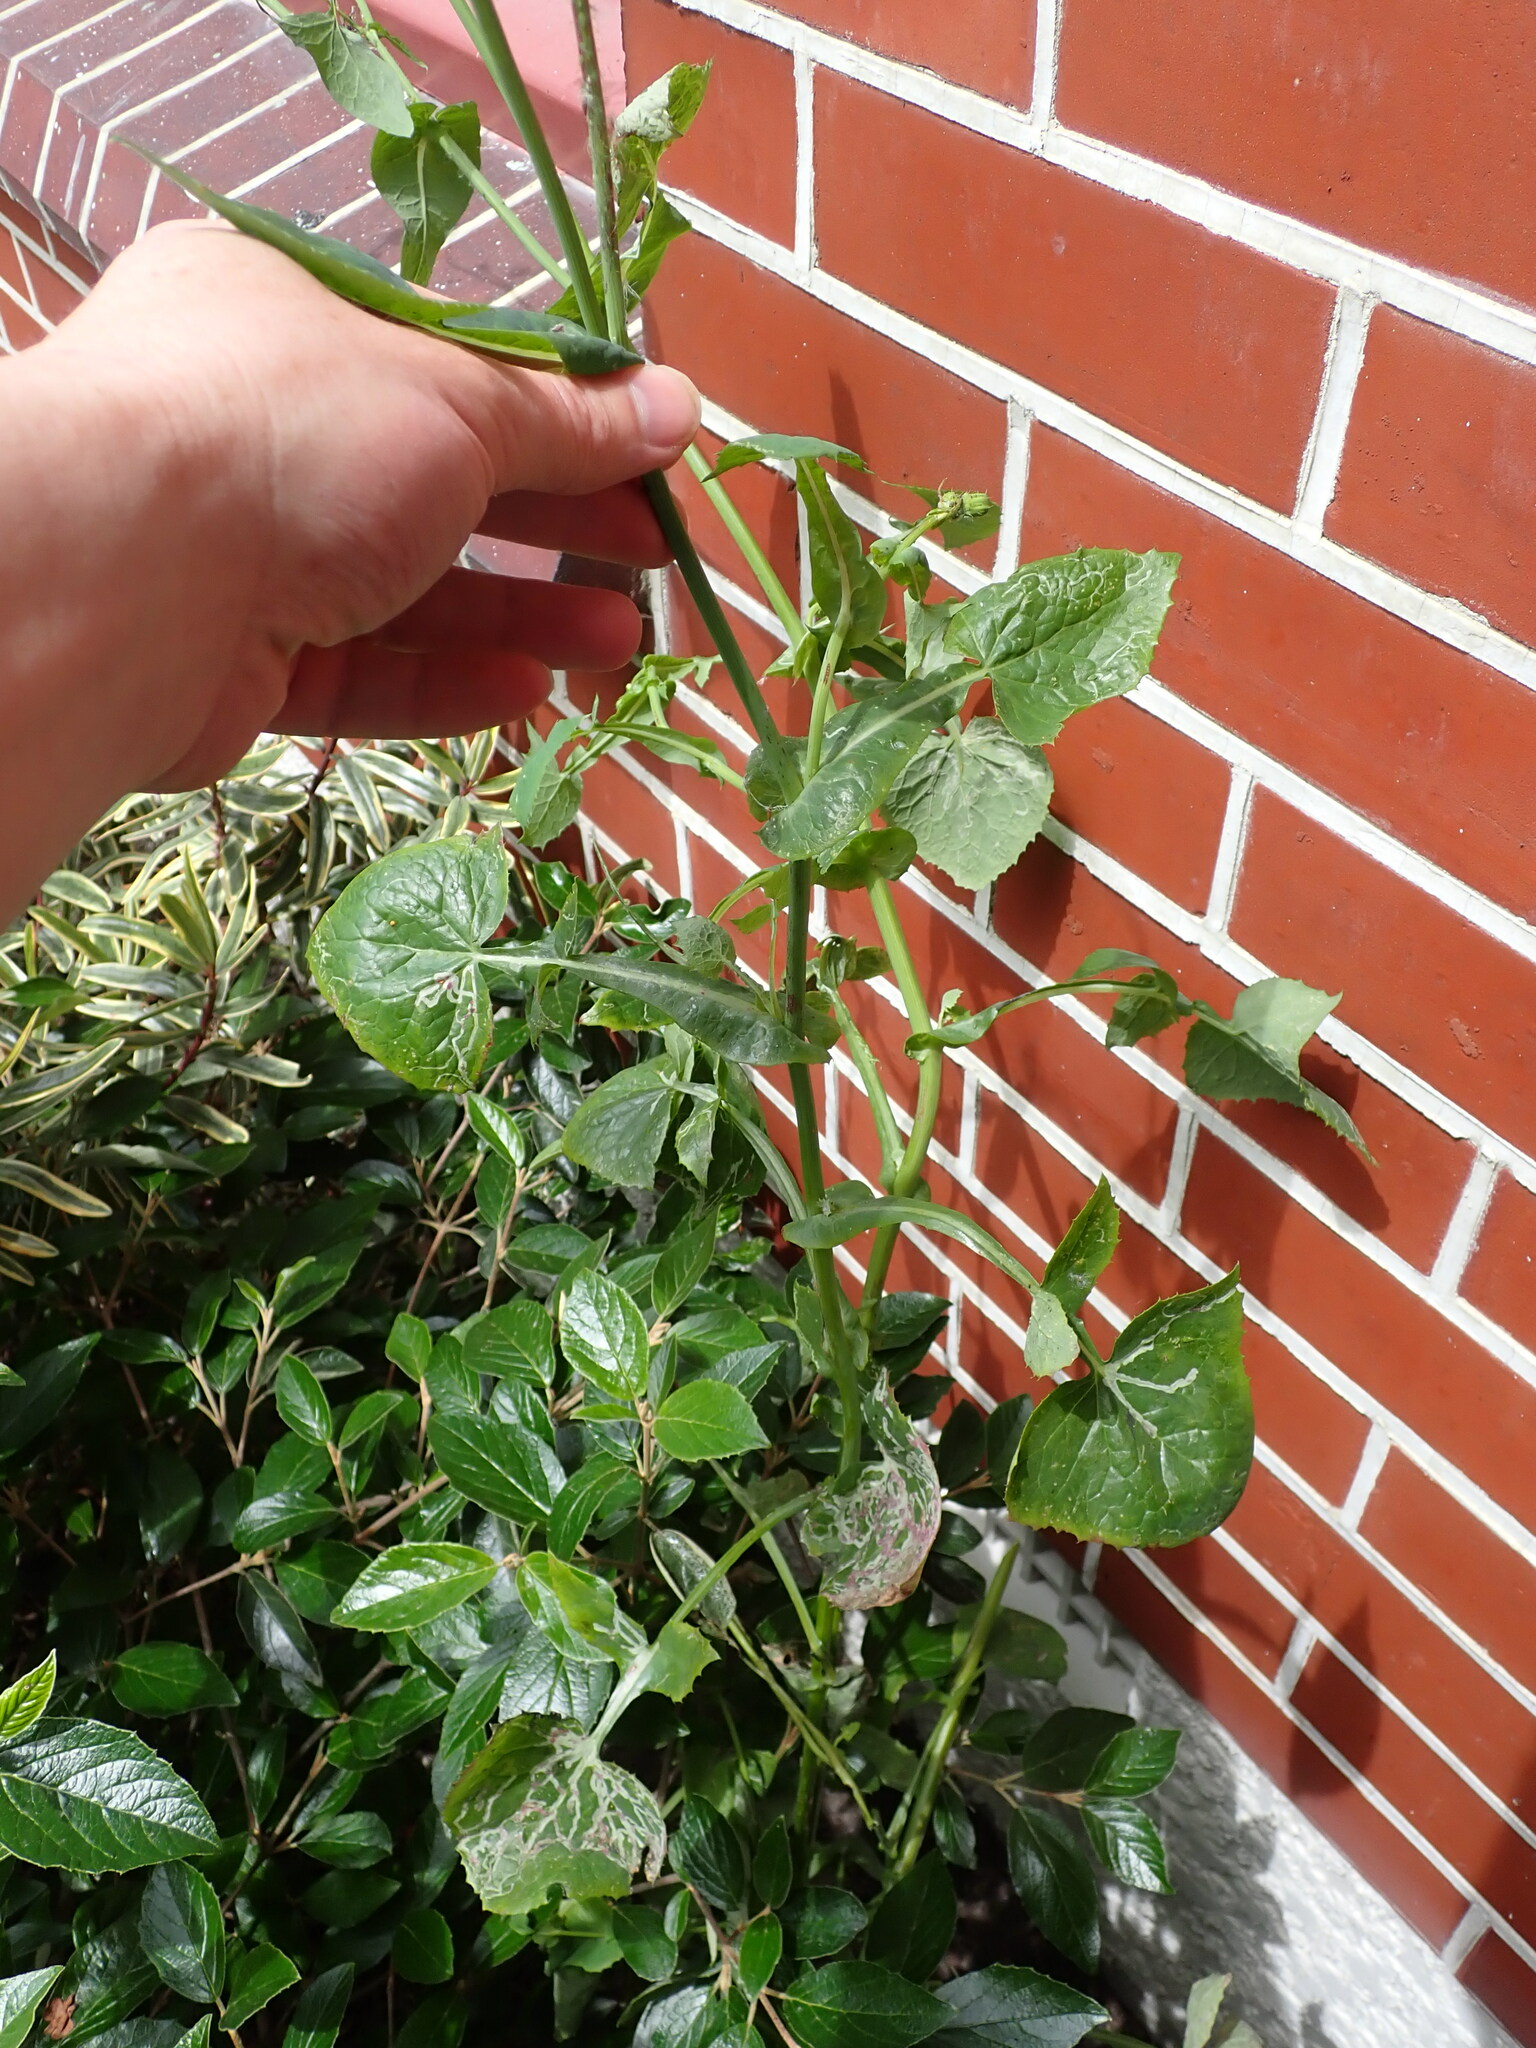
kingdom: Plantae
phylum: Tracheophyta
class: Magnoliopsida
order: Asterales
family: Asteraceae
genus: Sonchus
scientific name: Sonchus oleraceus
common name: Common sowthistle
